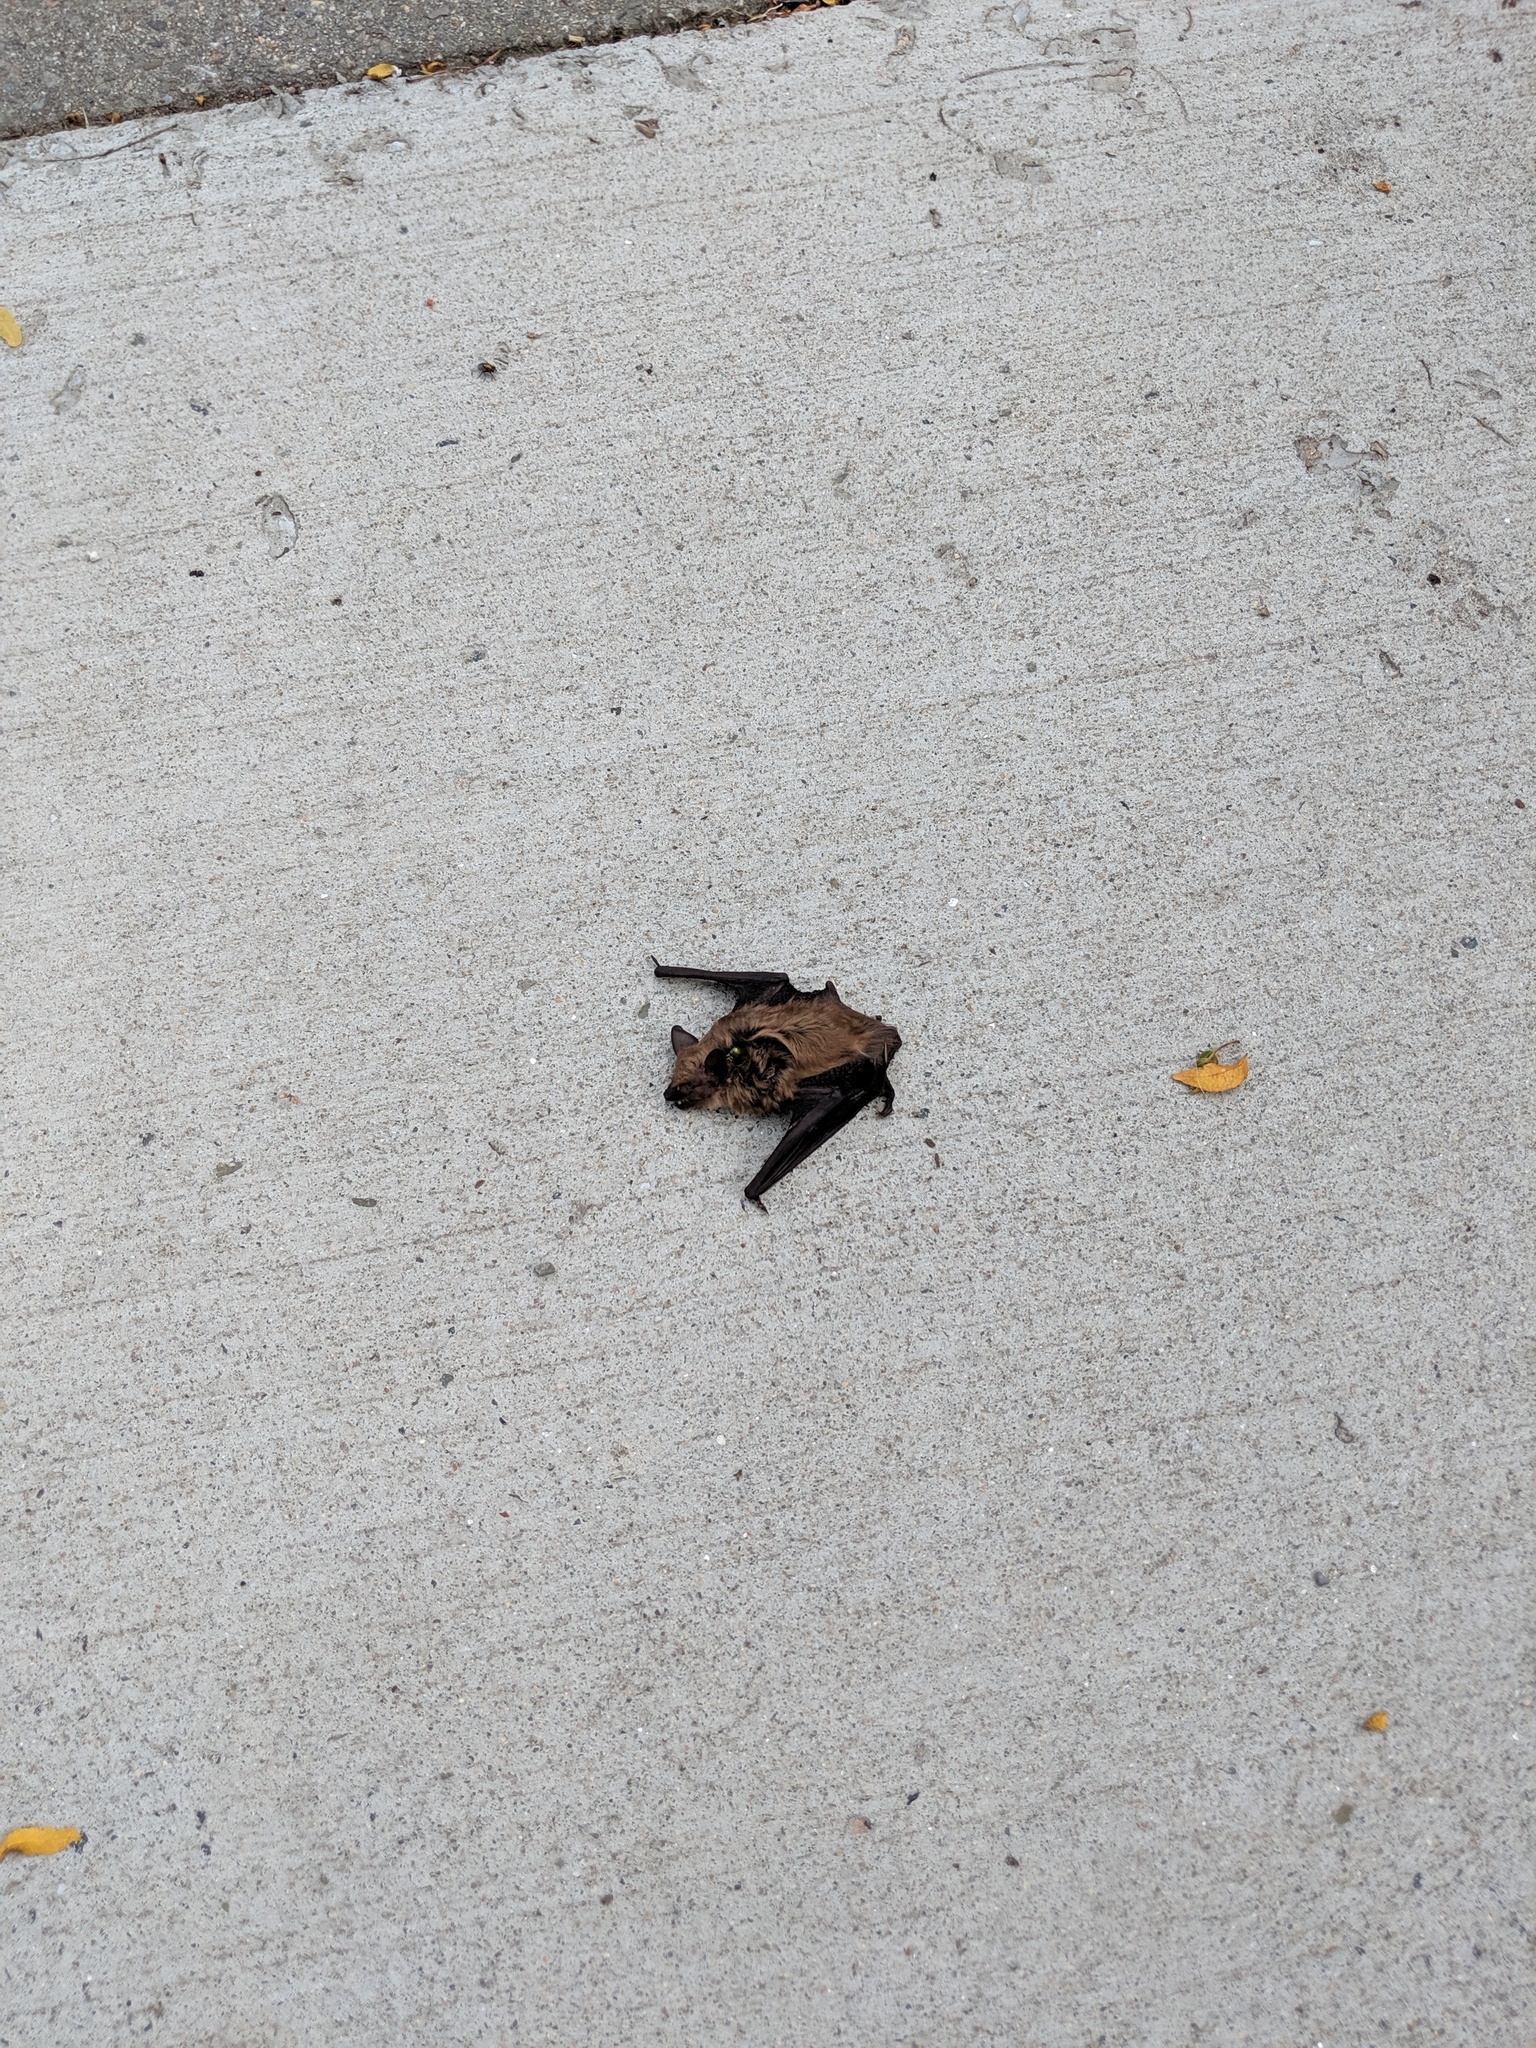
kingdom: Animalia
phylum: Chordata
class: Mammalia
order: Chiroptera
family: Vespertilionidae
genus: Eptesicus
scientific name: Eptesicus fuscus
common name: Big brown bat
